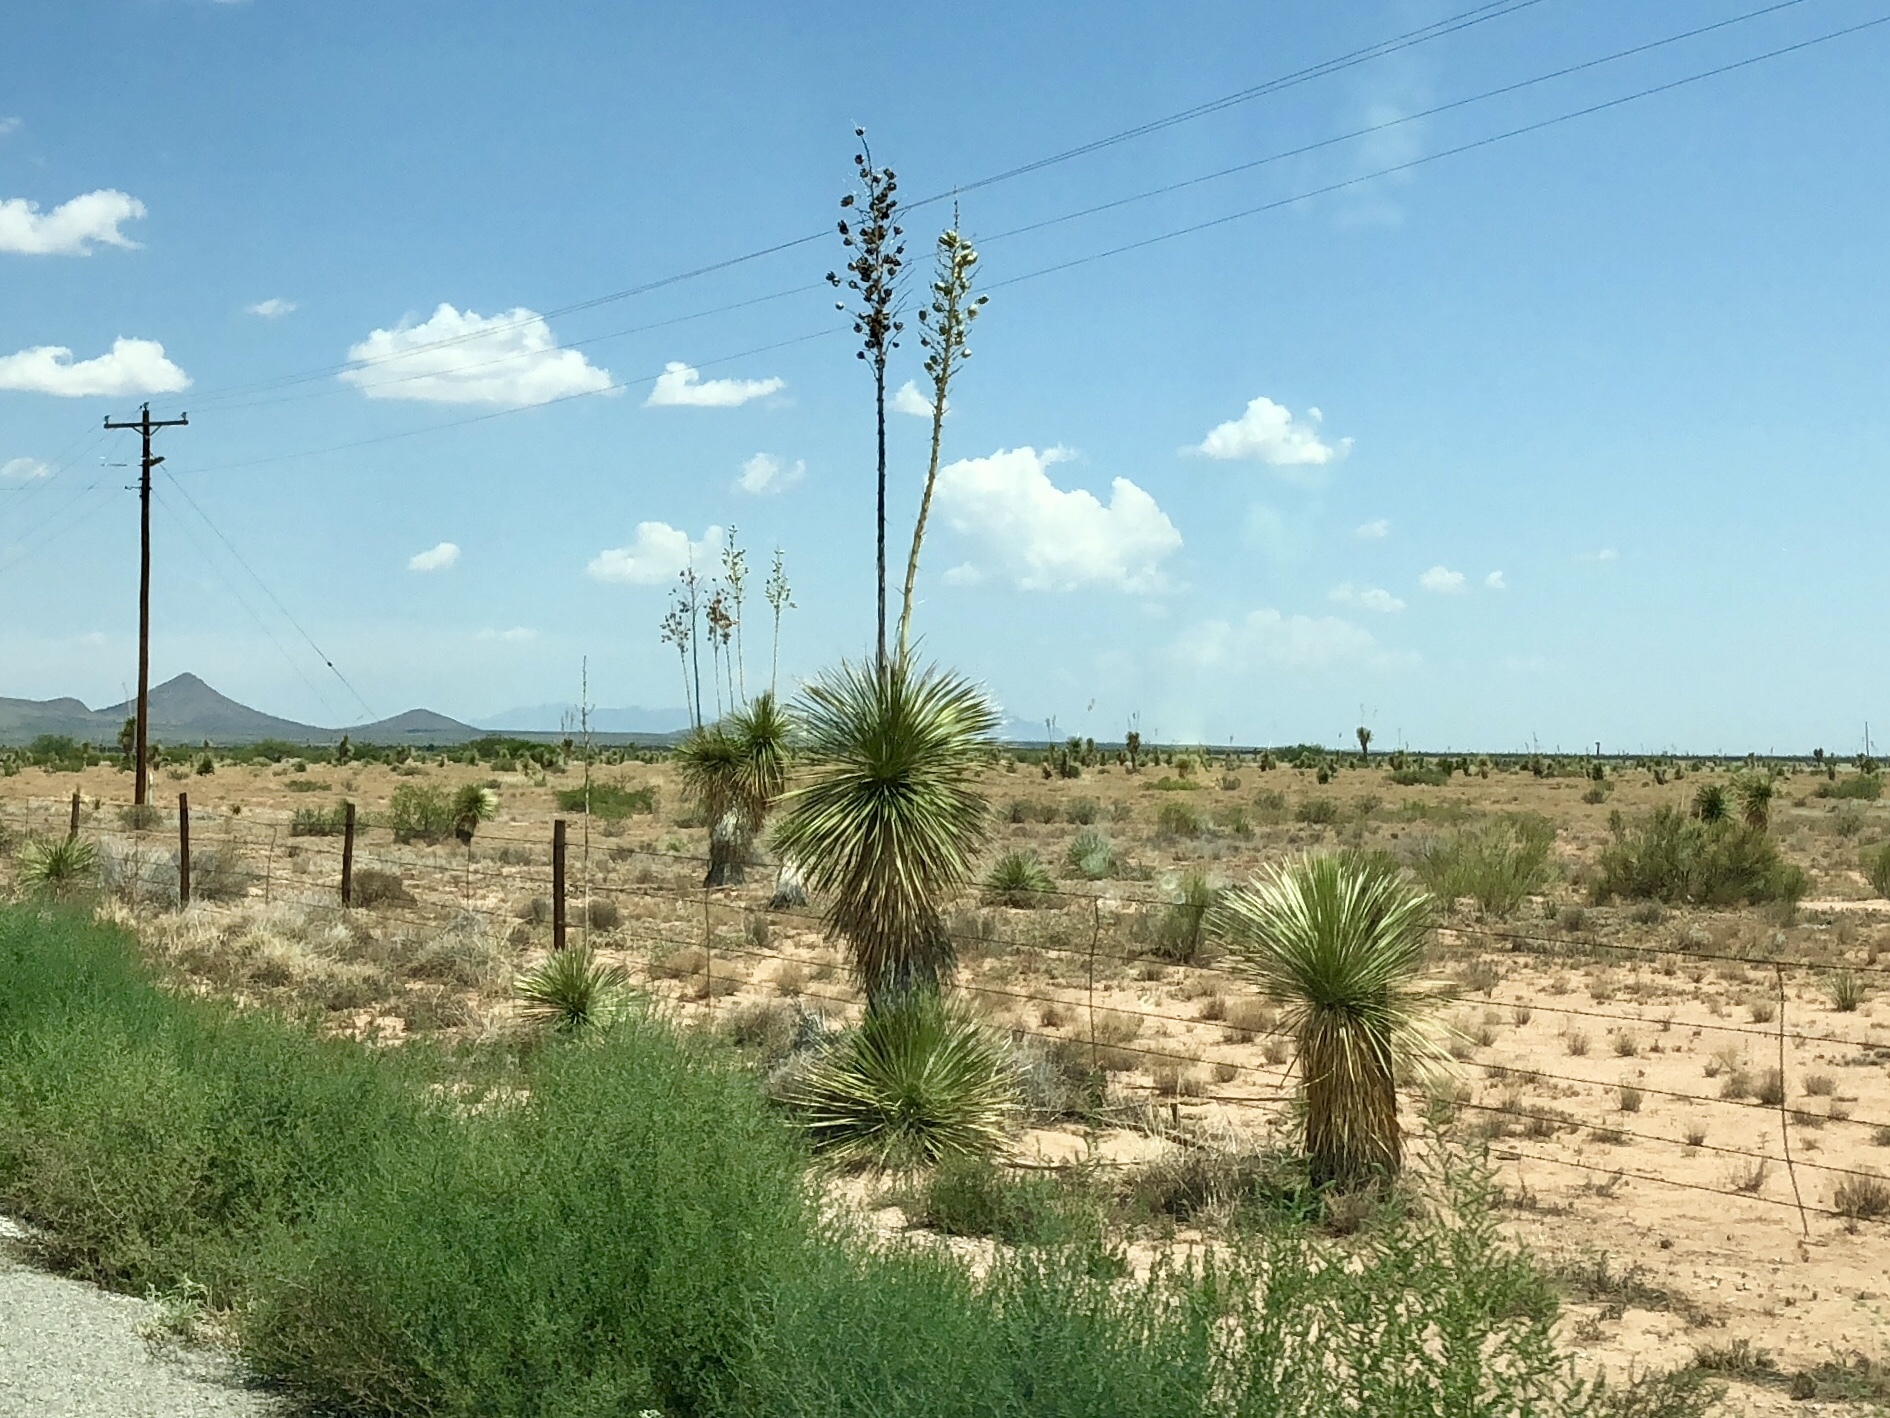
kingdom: Plantae
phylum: Tracheophyta
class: Liliopsida
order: Asparagales
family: Asparagaceae
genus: Yucca
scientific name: Yucca elata
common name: Palmella
